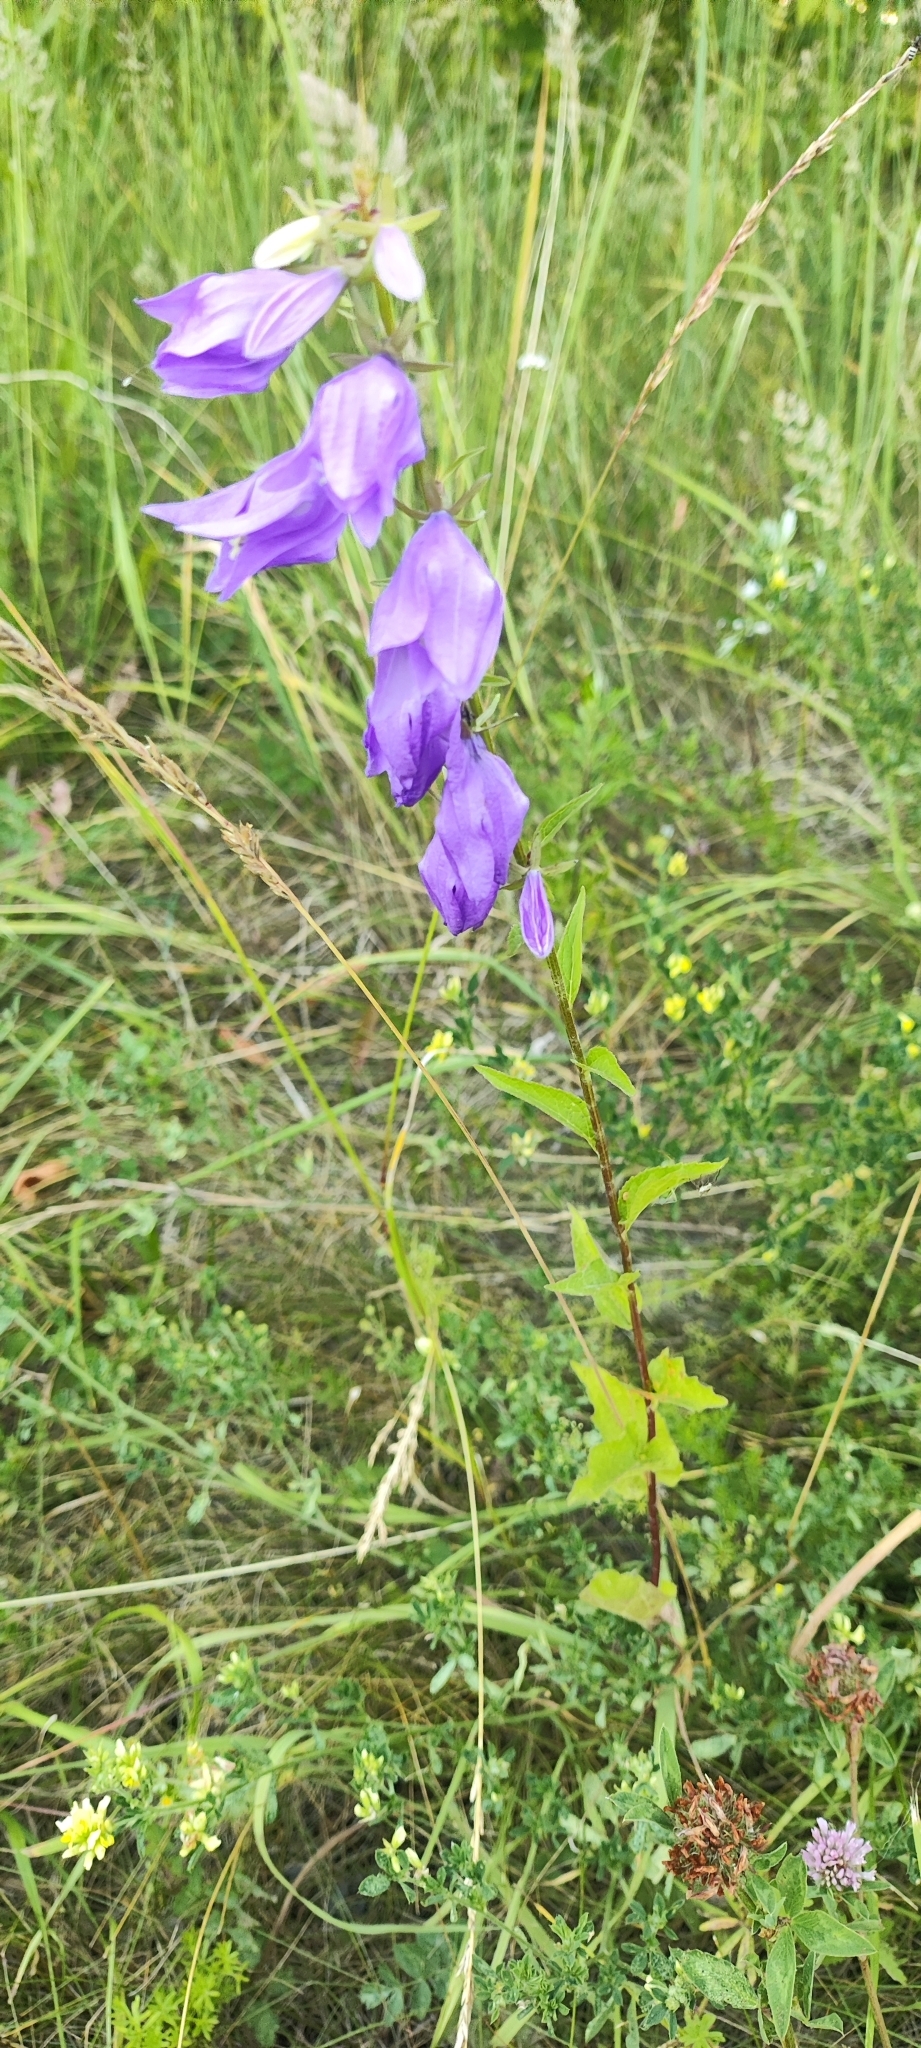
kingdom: Plantae
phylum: Tracheophyta
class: Magnoliopsida
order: Asterales
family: Campanulaceae
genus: Campanula
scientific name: Campanula rapunculoides
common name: Creeping bellflower
